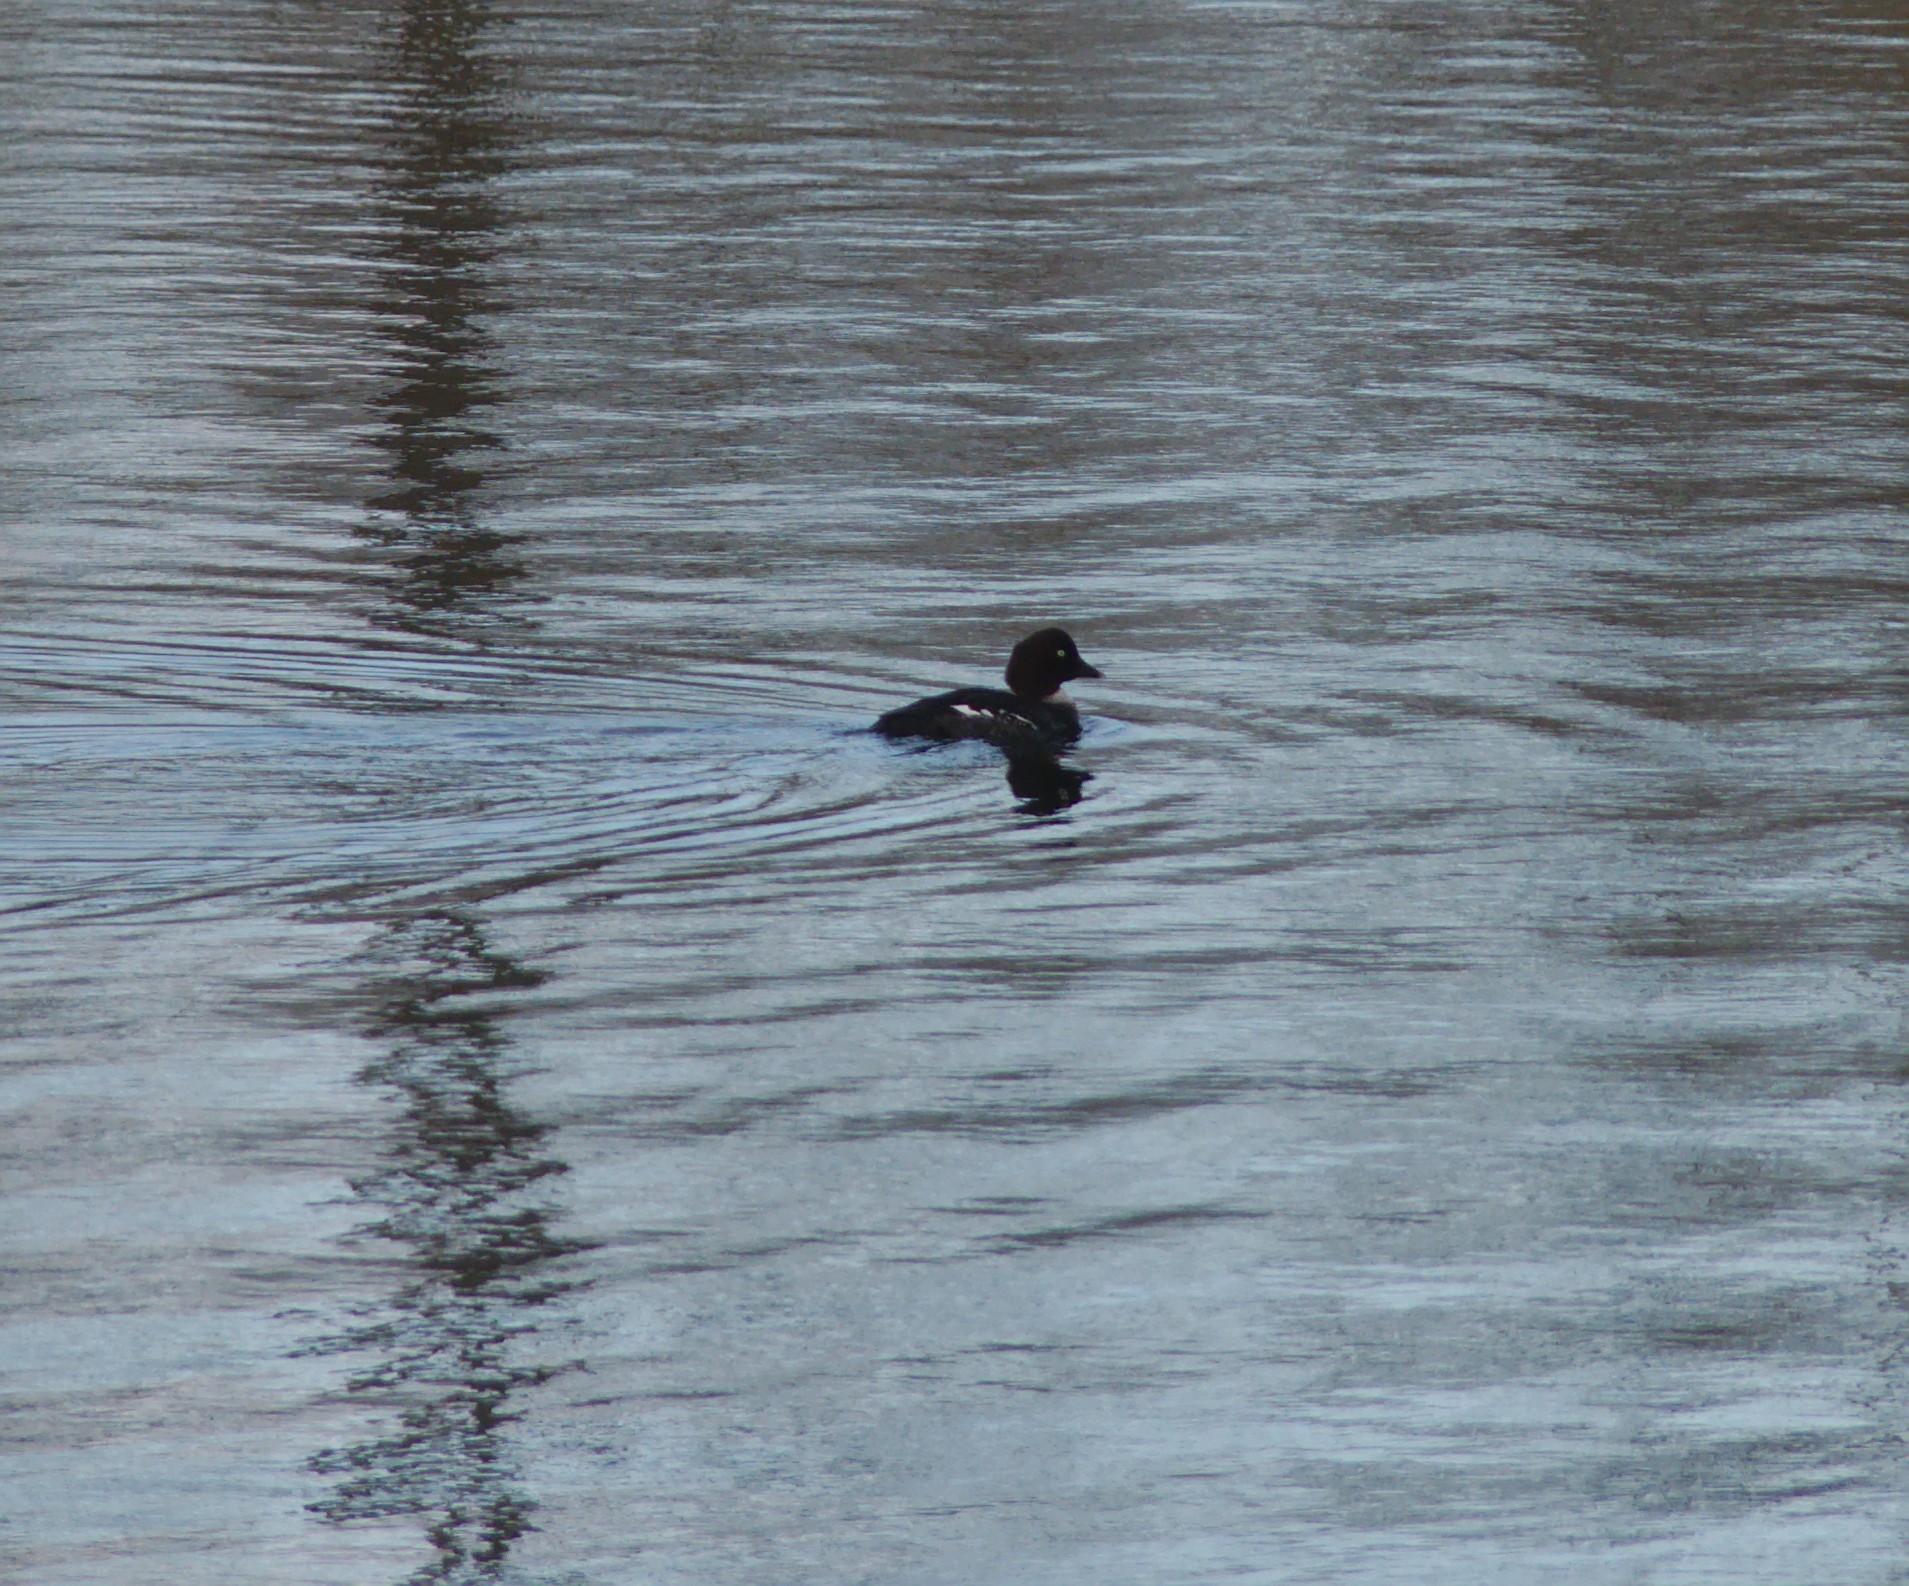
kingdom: Animalia
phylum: Chordata
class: Aves
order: Anseriformes
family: Anatidae
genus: Bucephala
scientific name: Bucephala clangula
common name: Common goldeneye
